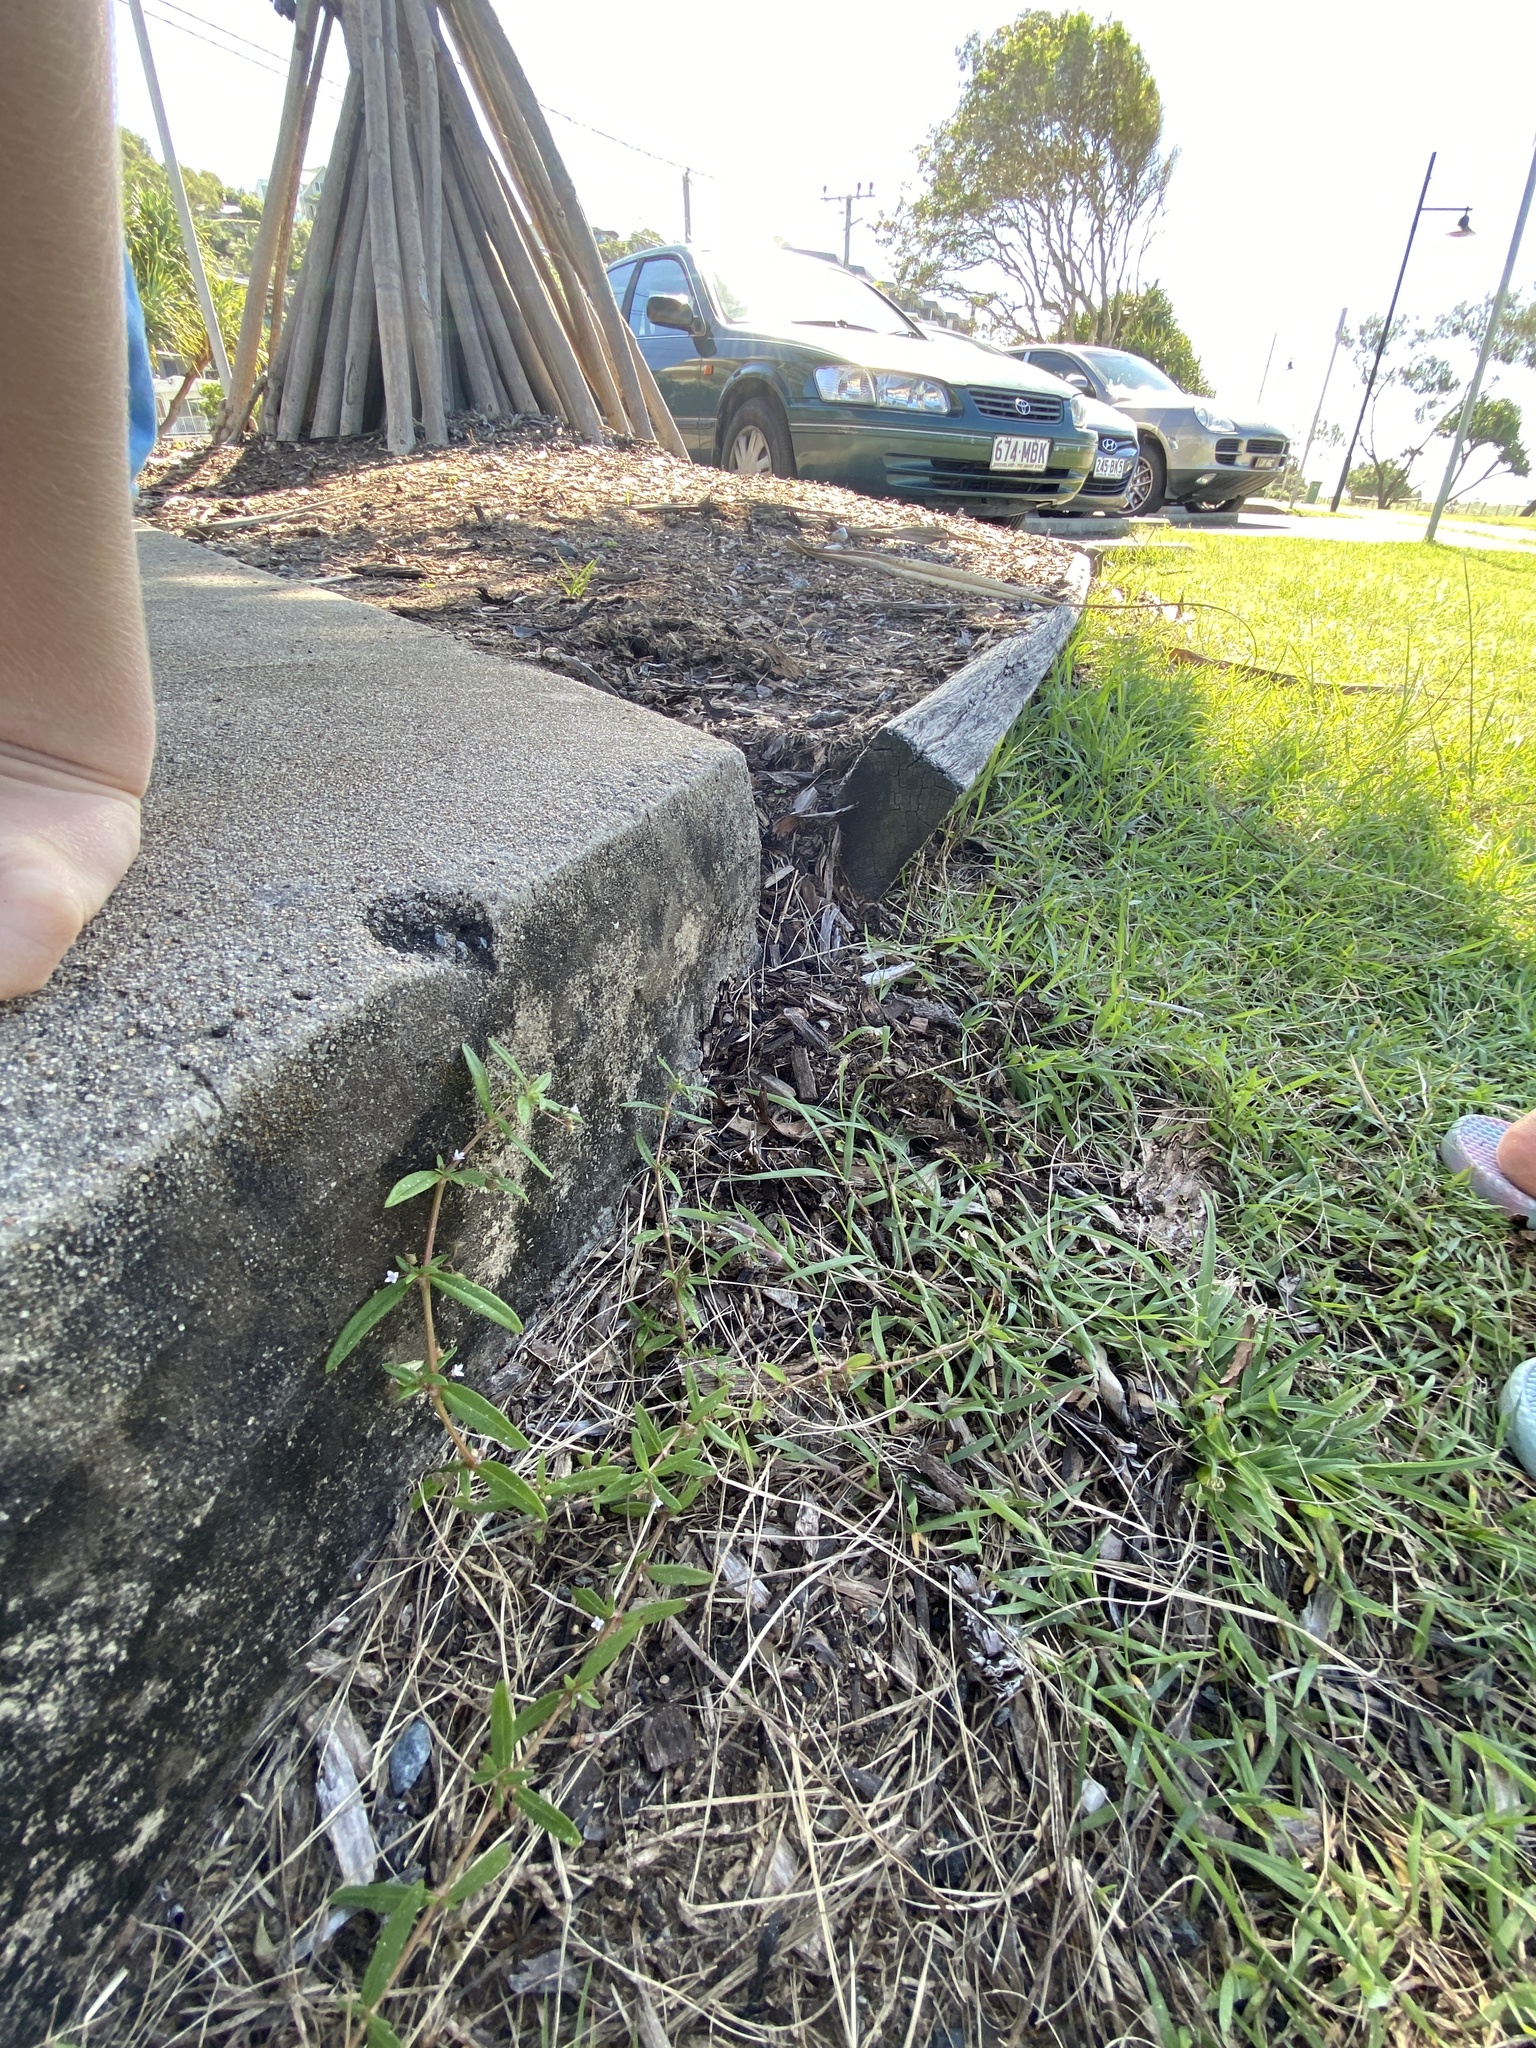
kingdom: Plantae
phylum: Tracheophyta
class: Magnoliopsida
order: Gentianales
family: Rubiaceae
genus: Oldenlandia
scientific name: Oldenlandia corymbosa
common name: Flat-top mille graines
